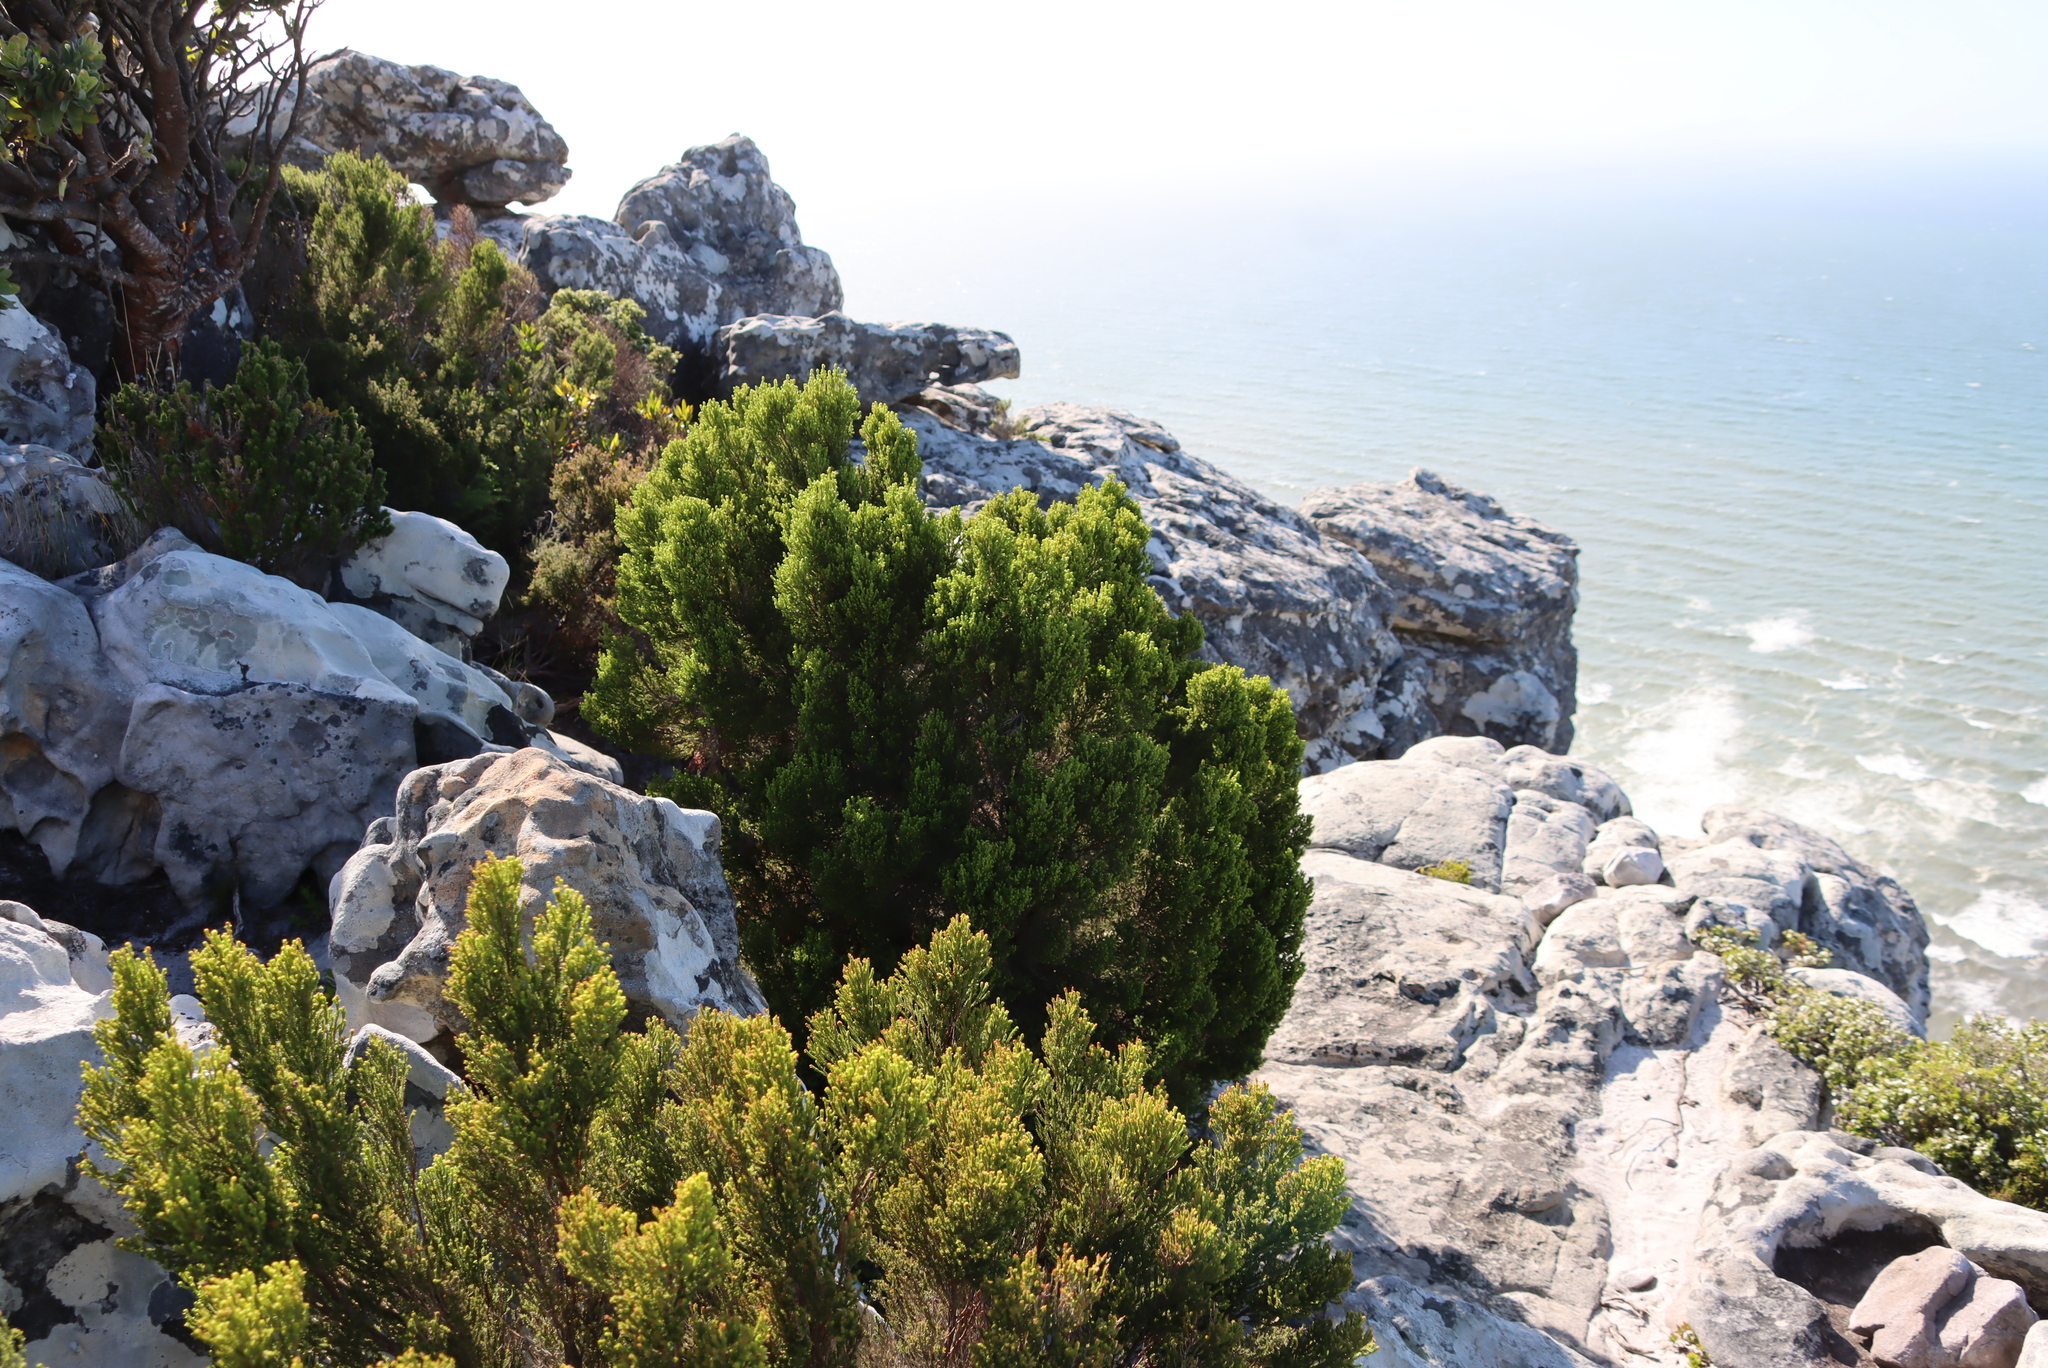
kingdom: Plantae
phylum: Tracheophyta
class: Magnoliopsida
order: Ericales
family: Ericaceae
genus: Erica
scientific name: Erica tristis
